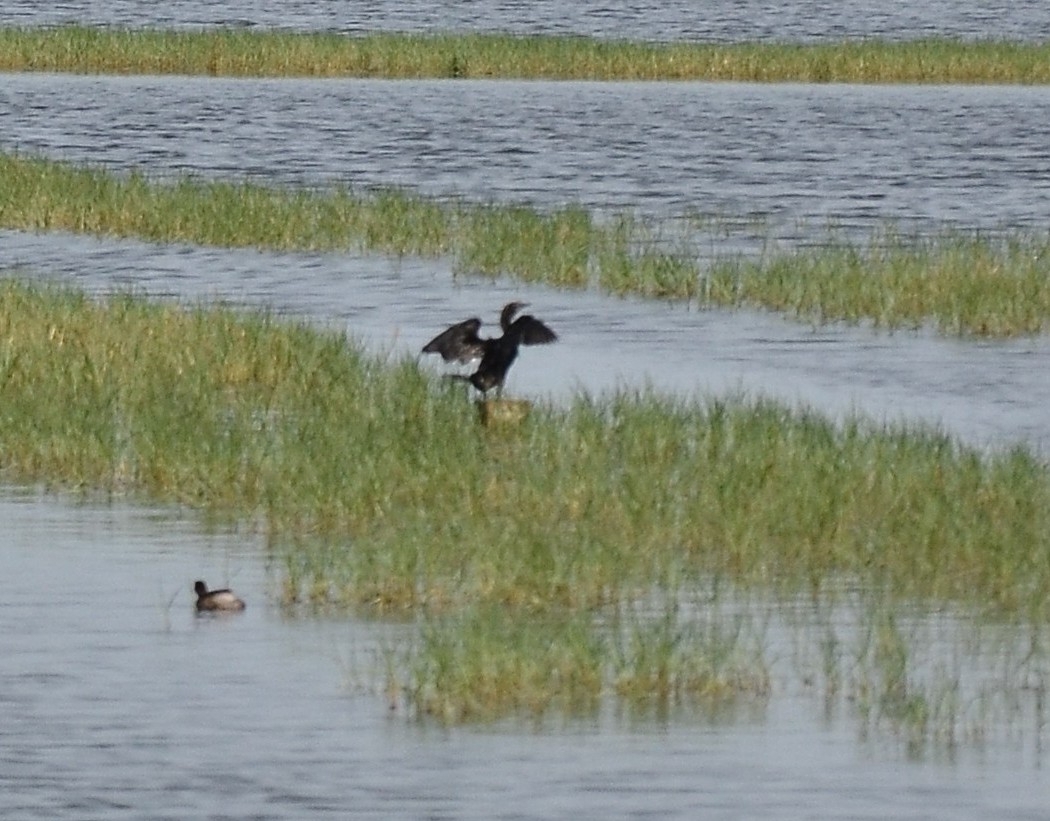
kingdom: Animalia
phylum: Chordata
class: Aves
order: Suliformes
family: Phalacrocoracidae
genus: Microcarbo
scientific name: Microcarbo niger
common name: Little cormorant
